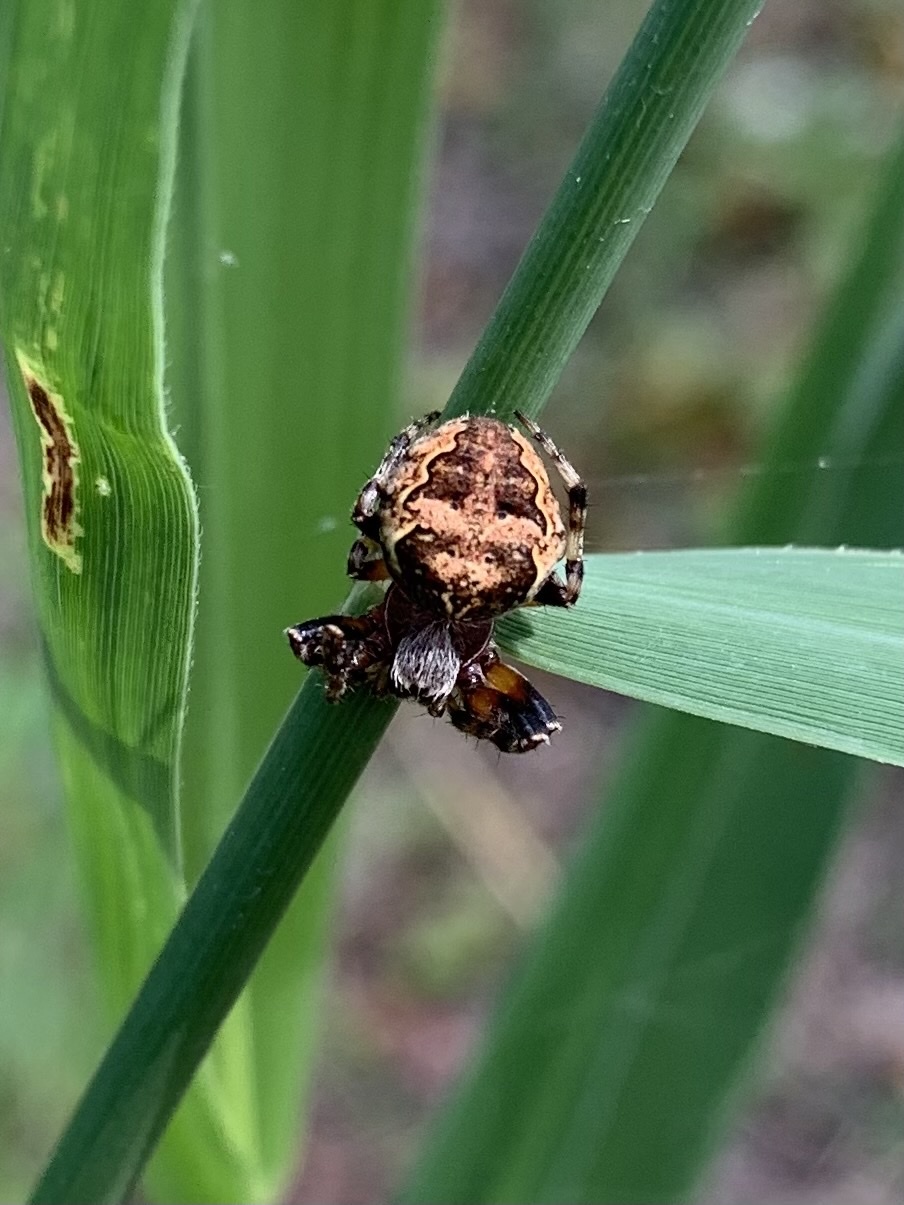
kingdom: Animalia
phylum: Arthropoda
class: Arachnida
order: Araneae
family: Araneidae
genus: Larinioides
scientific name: Larinioides sclopetarius
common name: Bridge orbweaver
